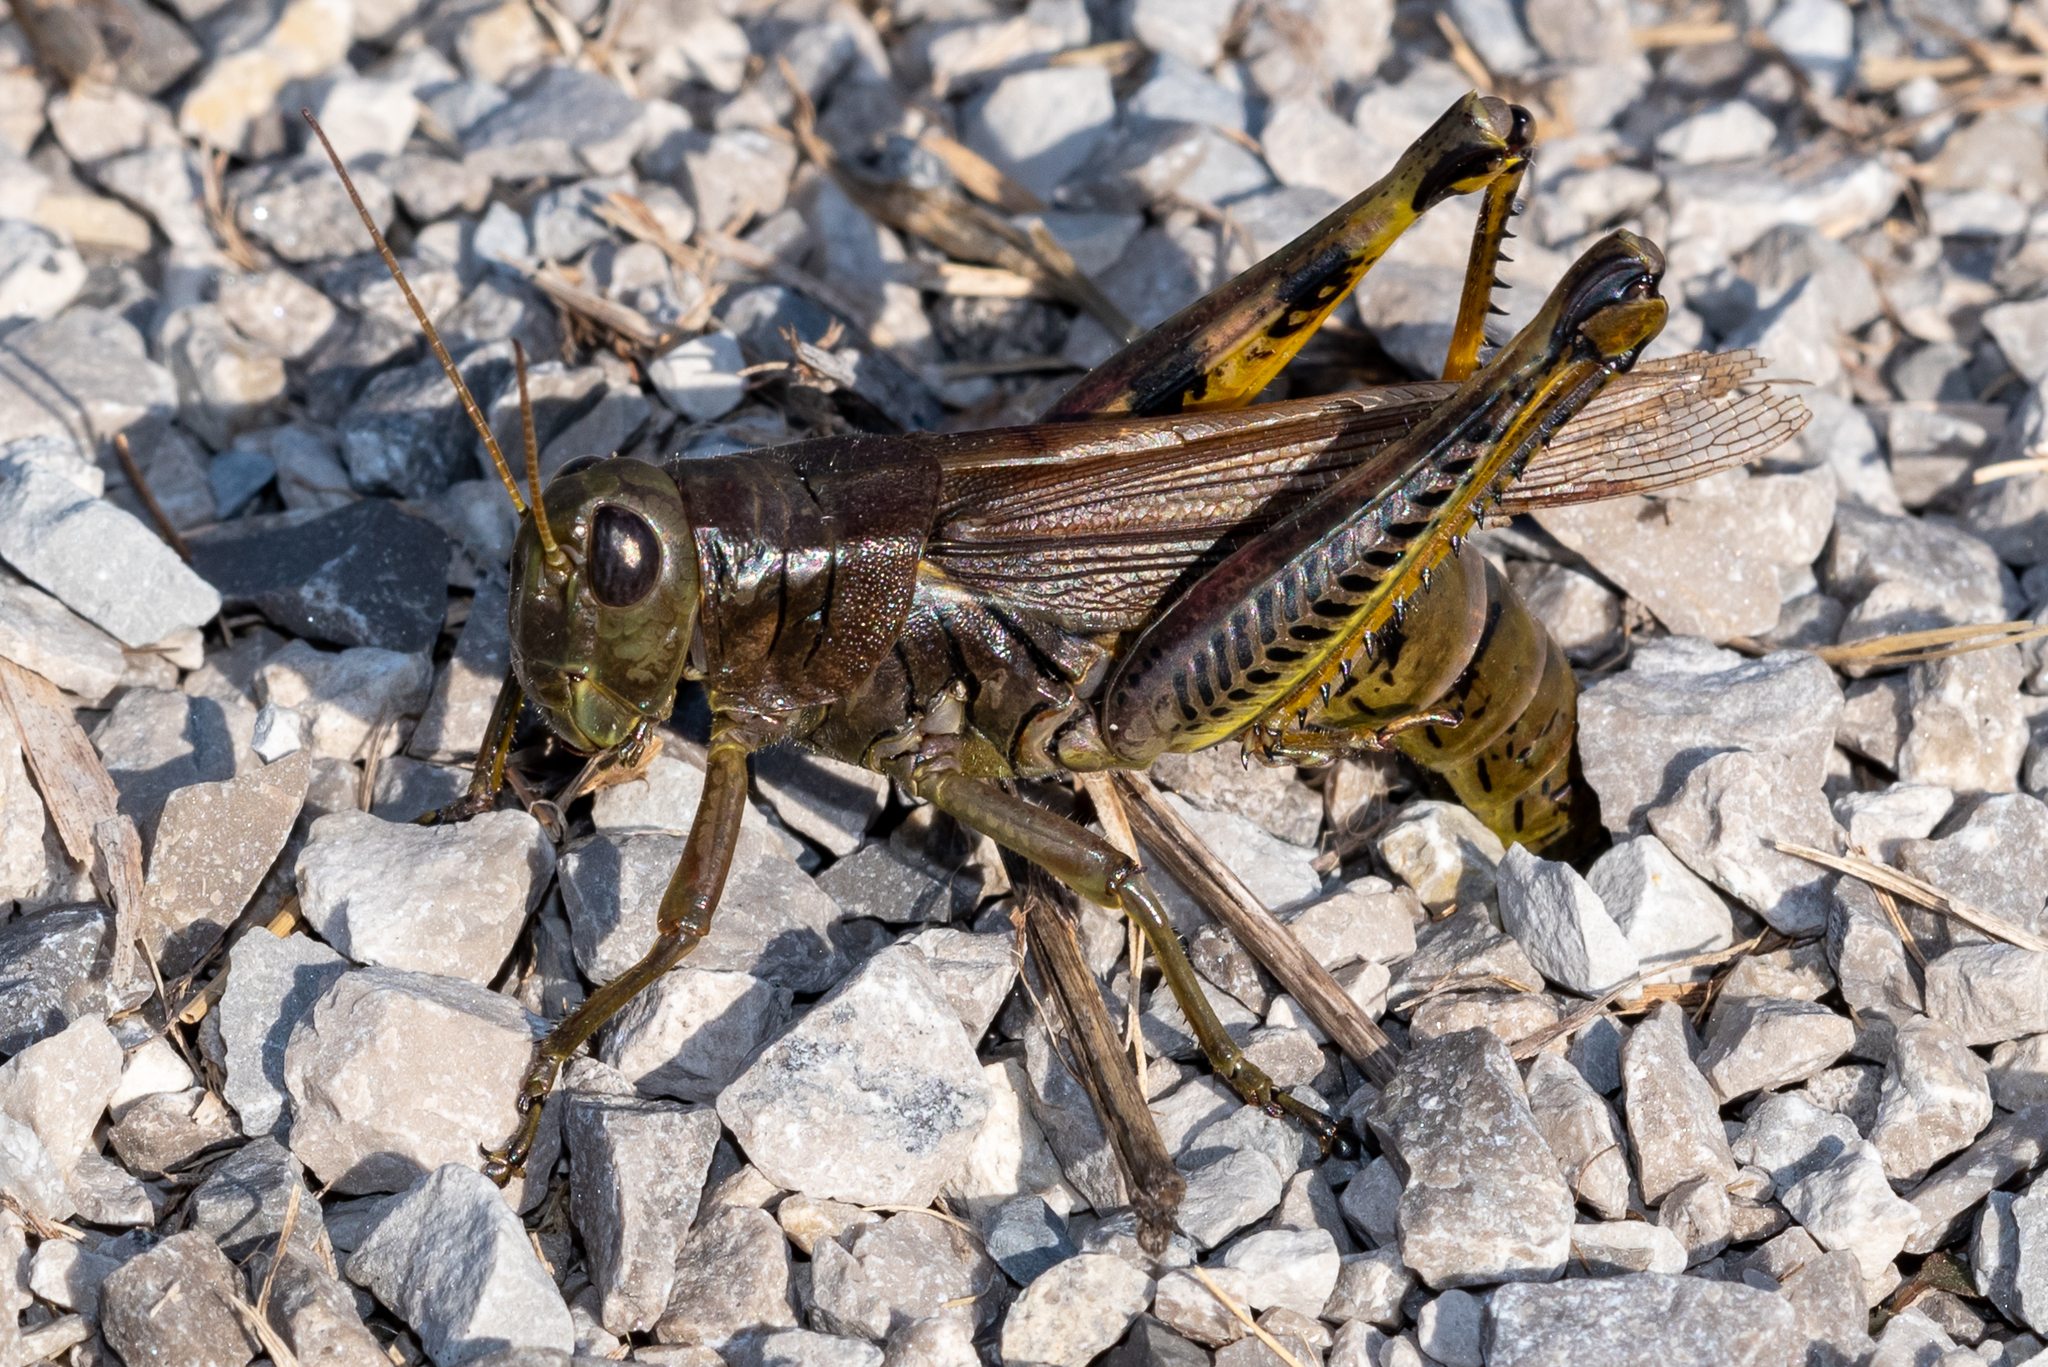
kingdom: Animalia
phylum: Arthropoda
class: Insecta
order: Orthoptera
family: Acrididae
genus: Melanoplus
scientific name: Melanoplus differentialis
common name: Differential grasshopper
